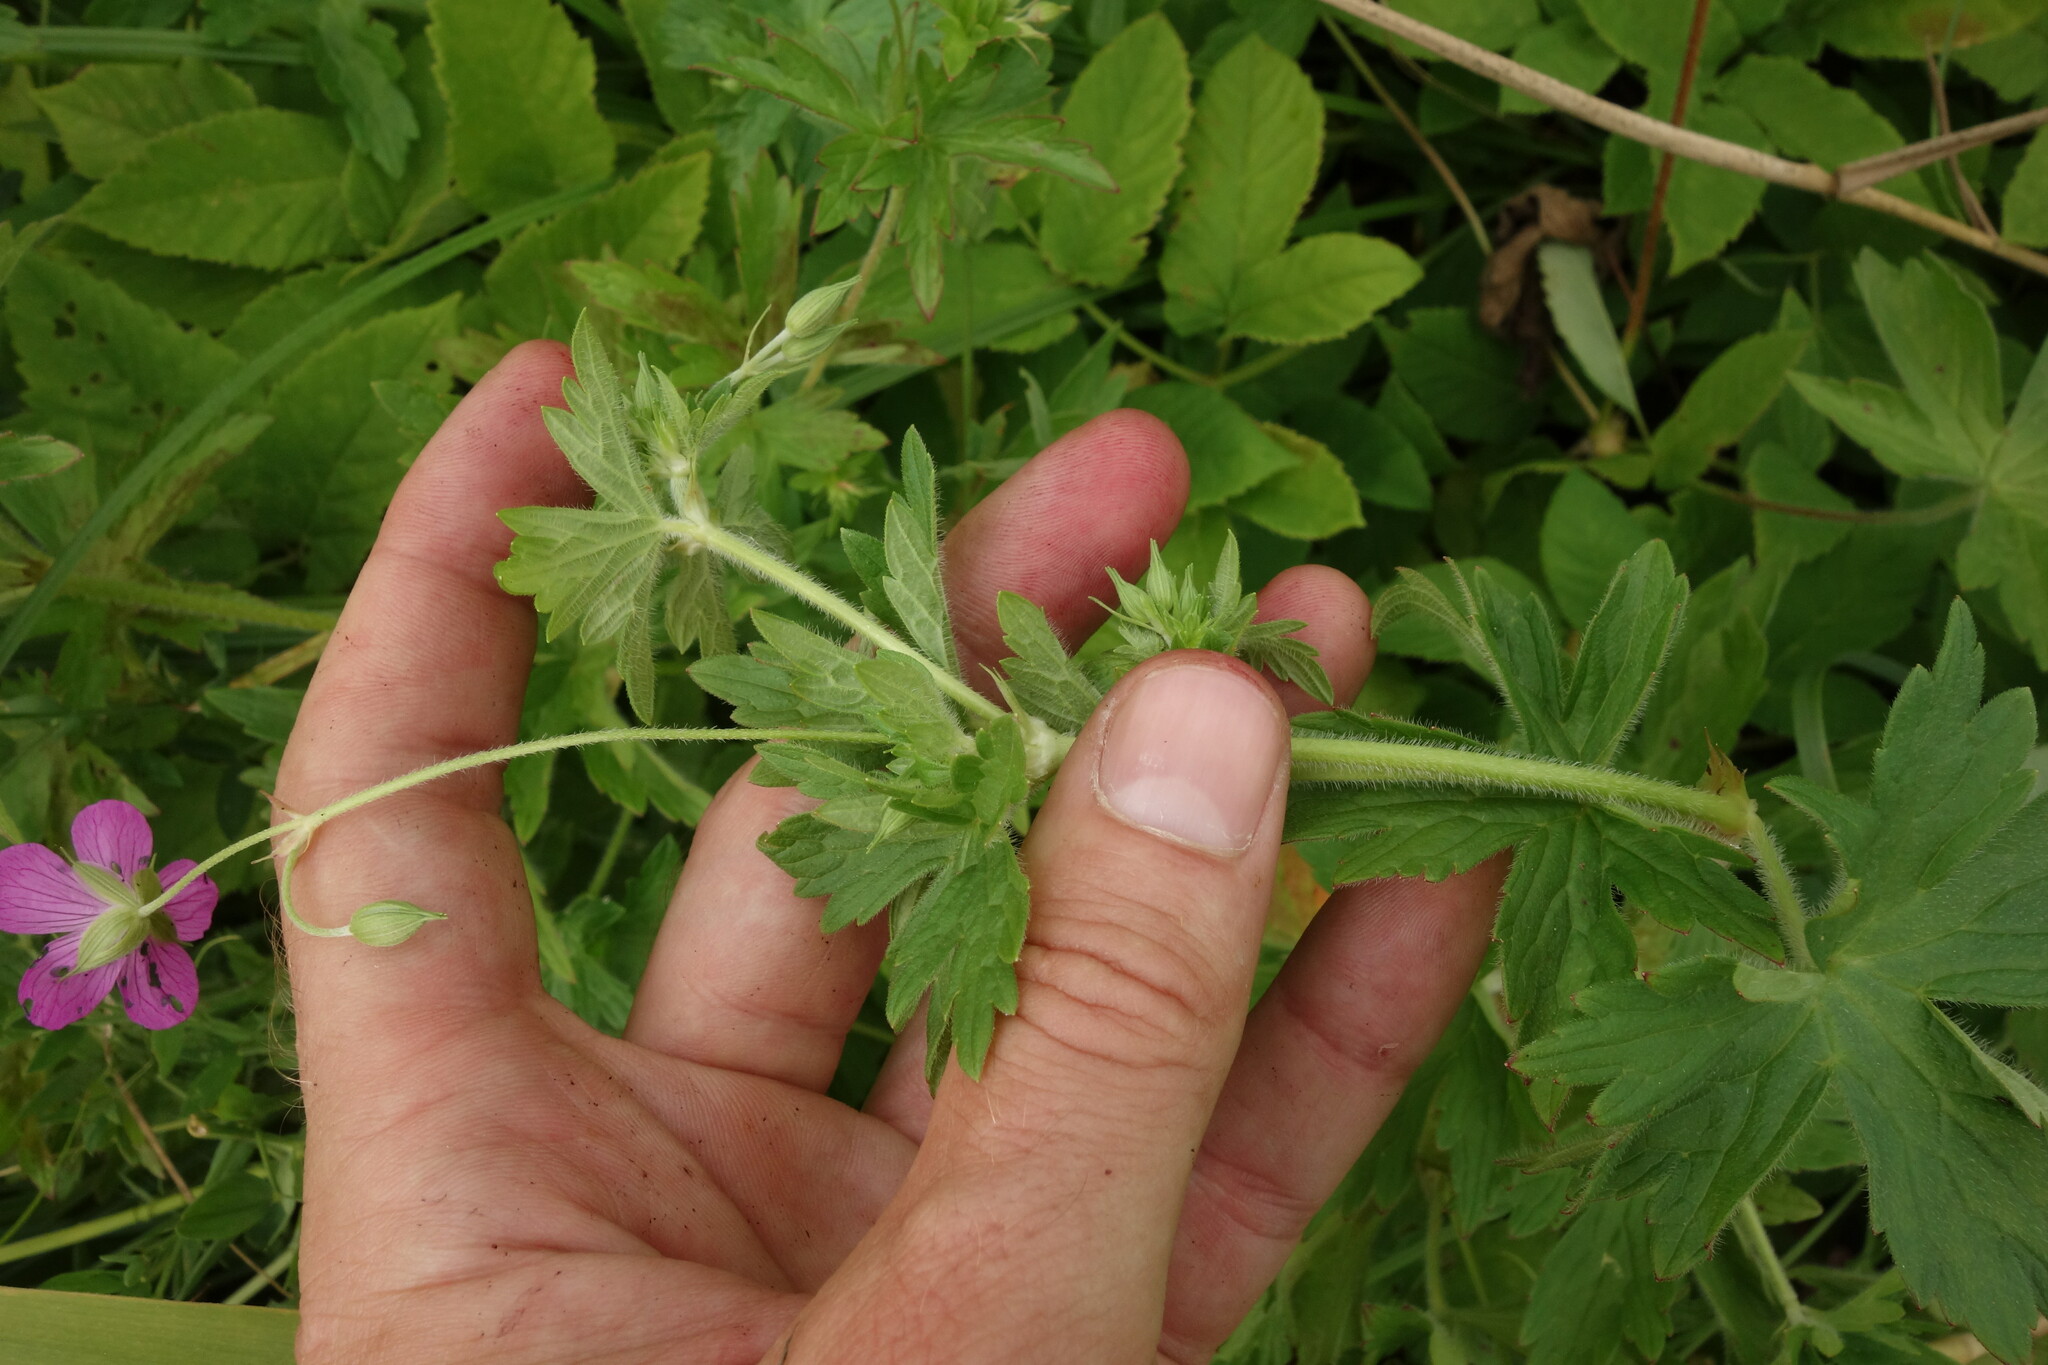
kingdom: Plantae
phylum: Tracheophyta
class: Magnoliopsida
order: Geraniales
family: Geraniaceae
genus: Geranium
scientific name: Geranium palustre
